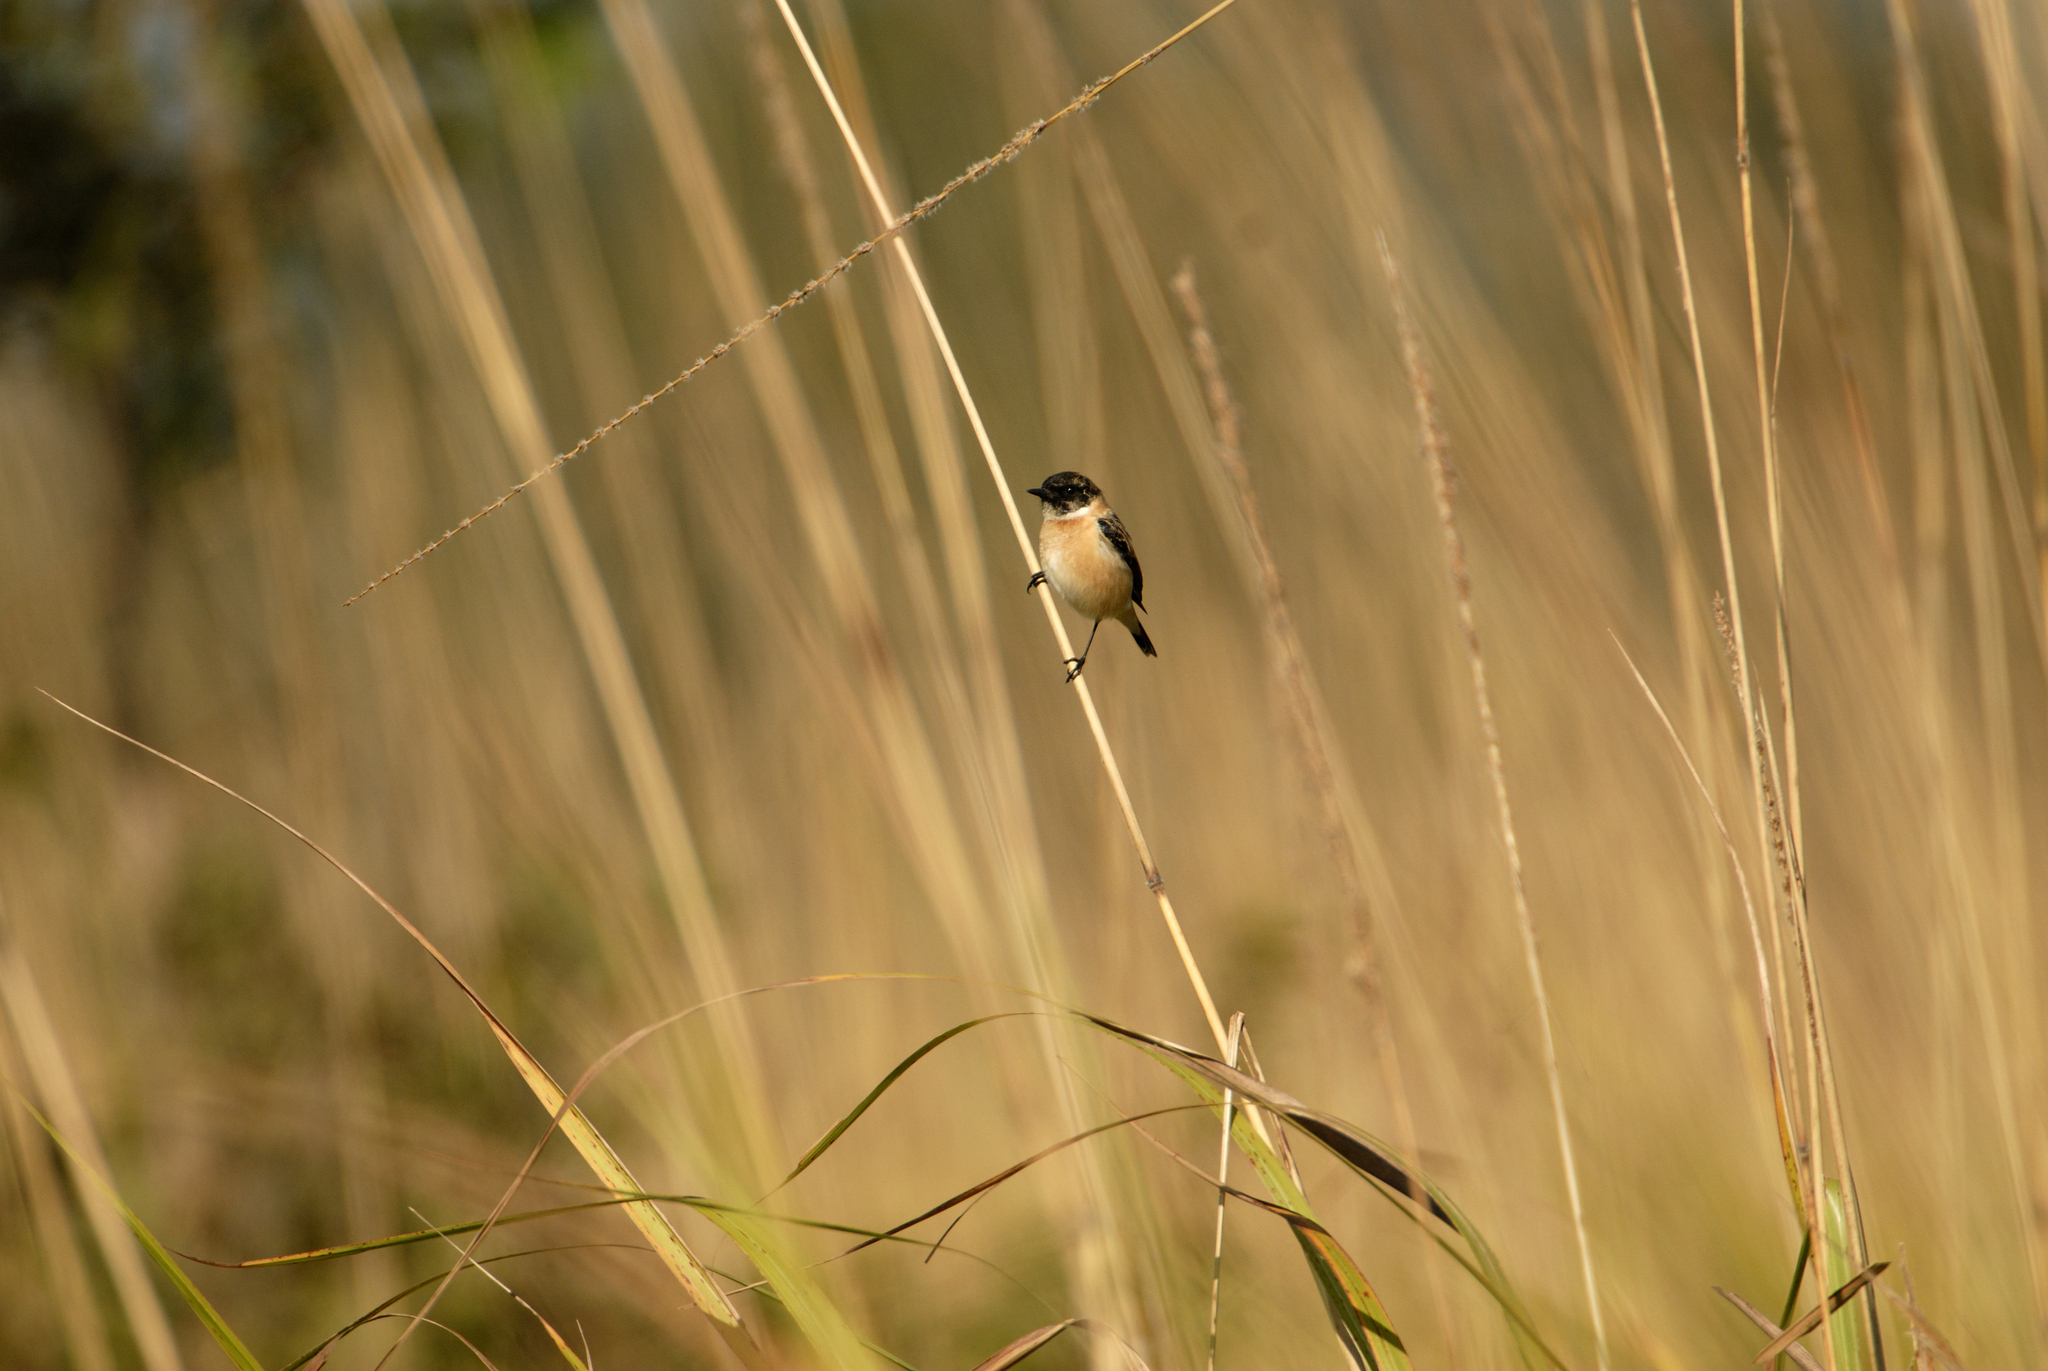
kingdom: Animalia
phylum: Chordata
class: Aves
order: Passeriformes
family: Muscicapidae
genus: Saxicola
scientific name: Saxicola maurus
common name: Siberian stonechat
